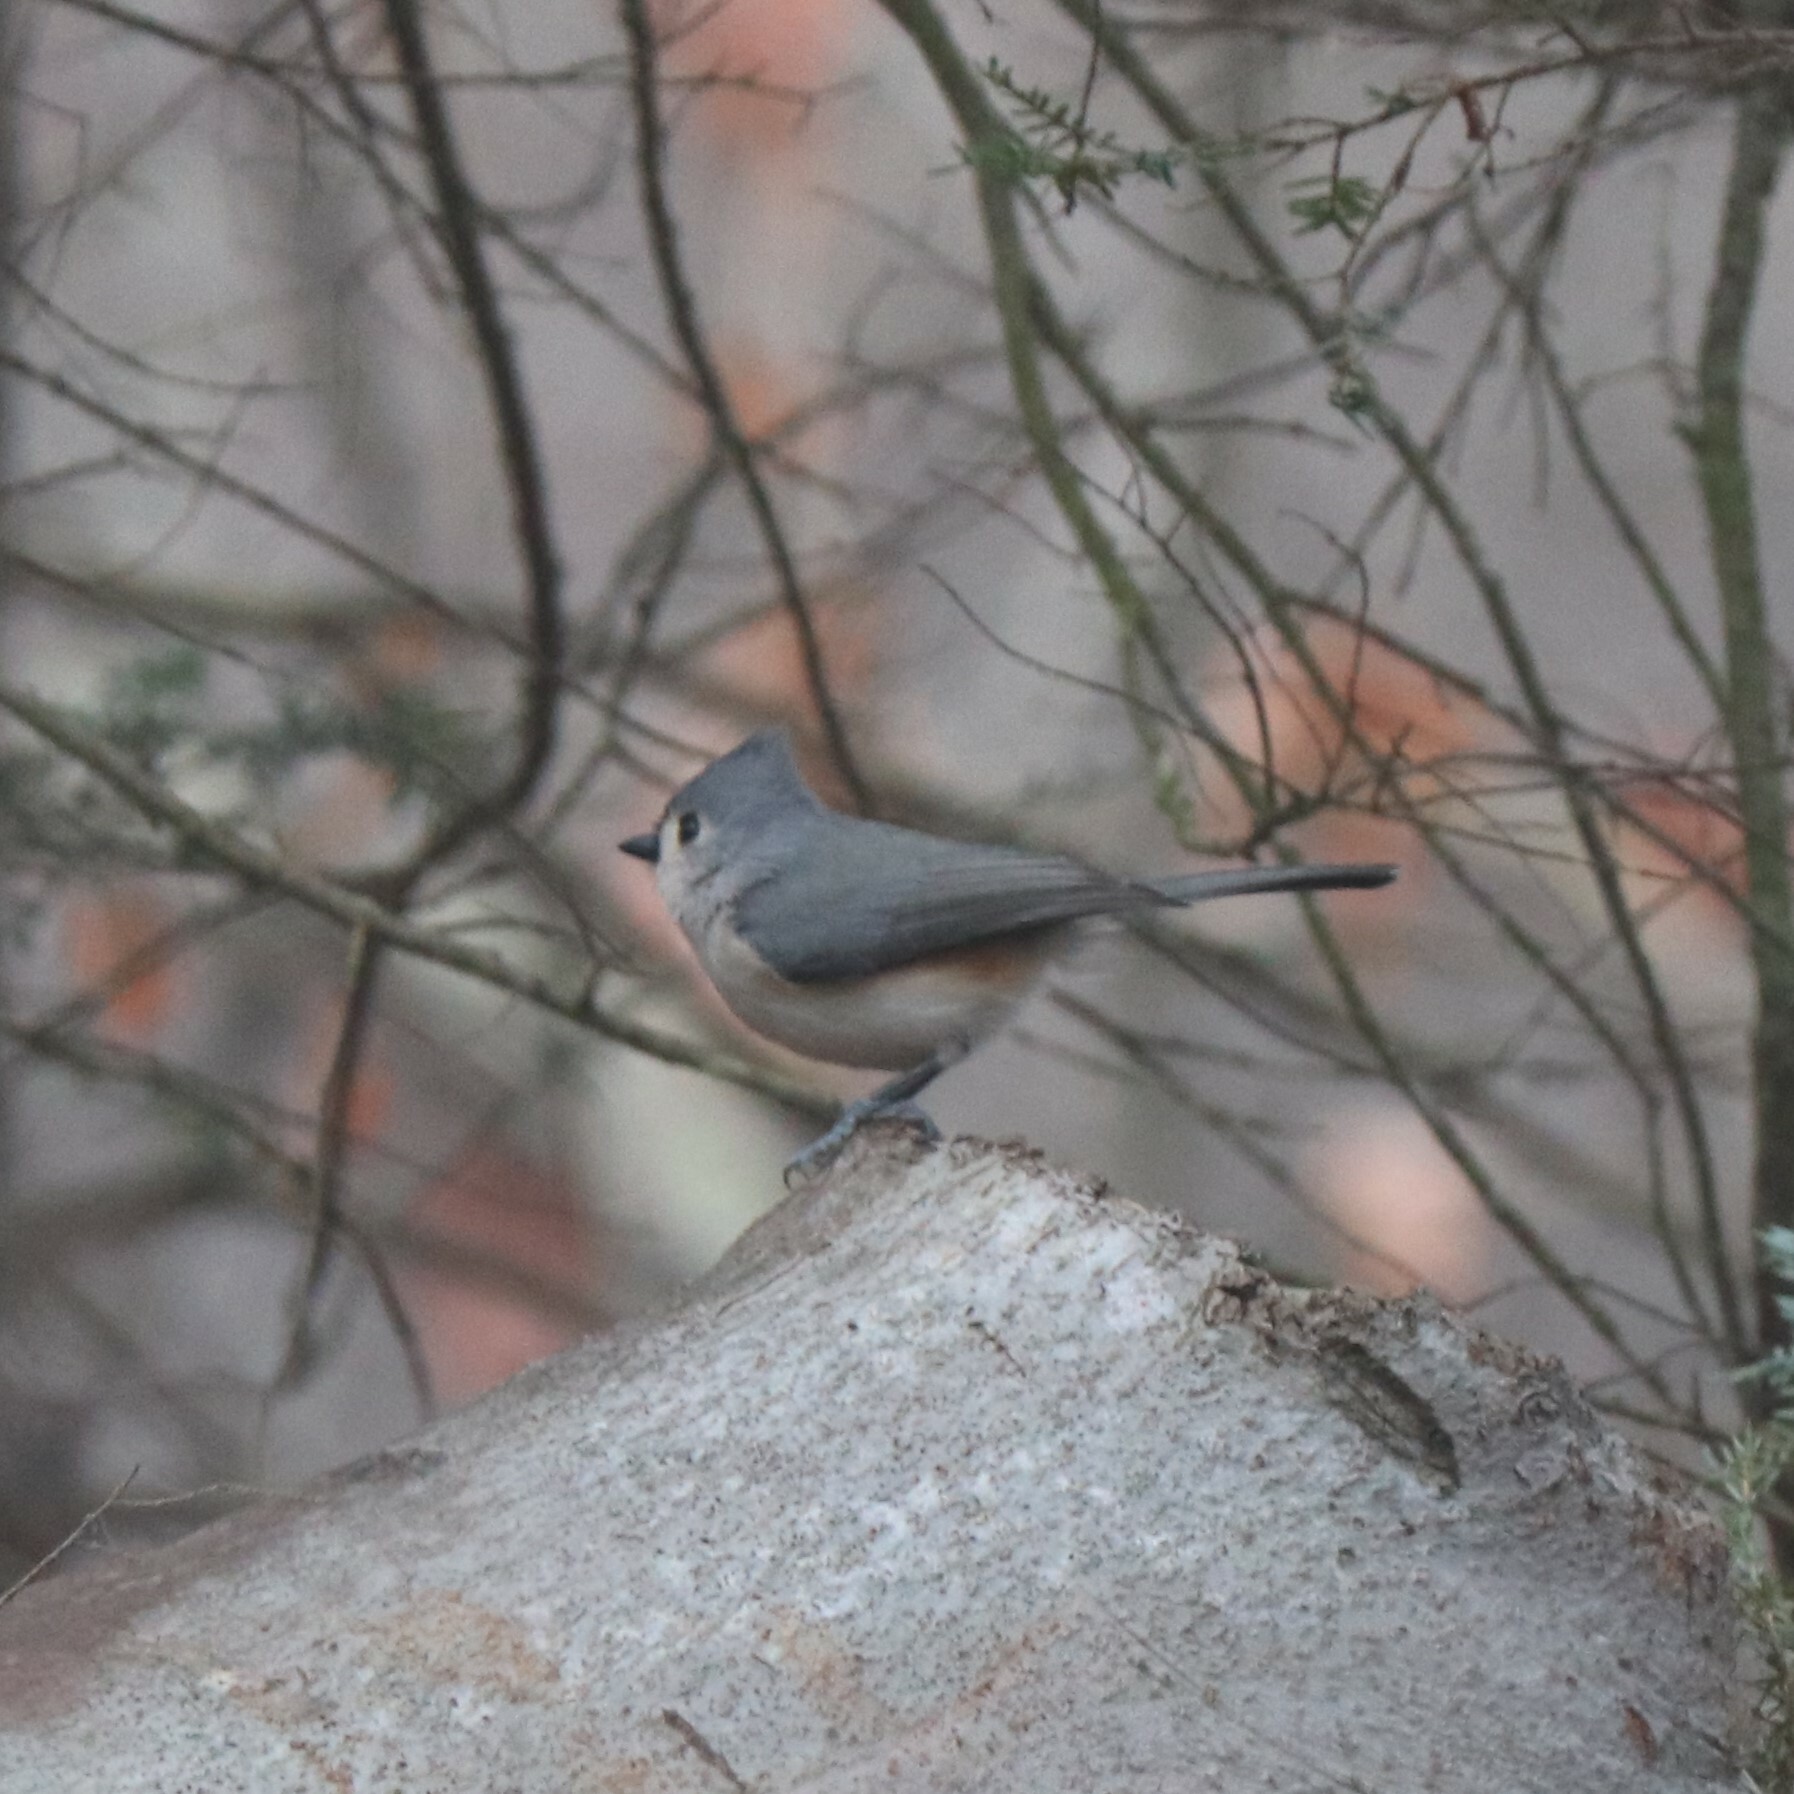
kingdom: Animalia
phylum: Chordata
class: Aves
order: Passeriformes
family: Paridae
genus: Baeolophus
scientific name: Baeolophus bicolor
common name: Tufted titmouse
